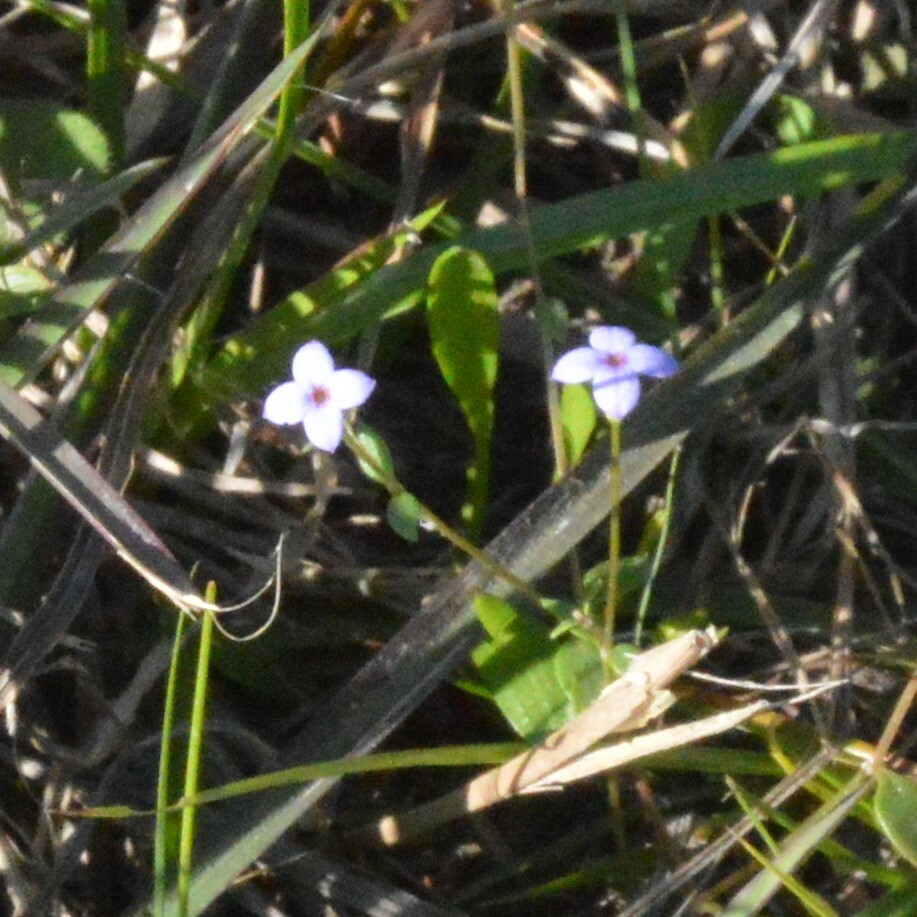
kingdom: Plantae
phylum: Tracheophyta
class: Magnoliopsida
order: Gentianales
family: Rubiaceae
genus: Houstonia
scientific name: Houstonia pusilla
